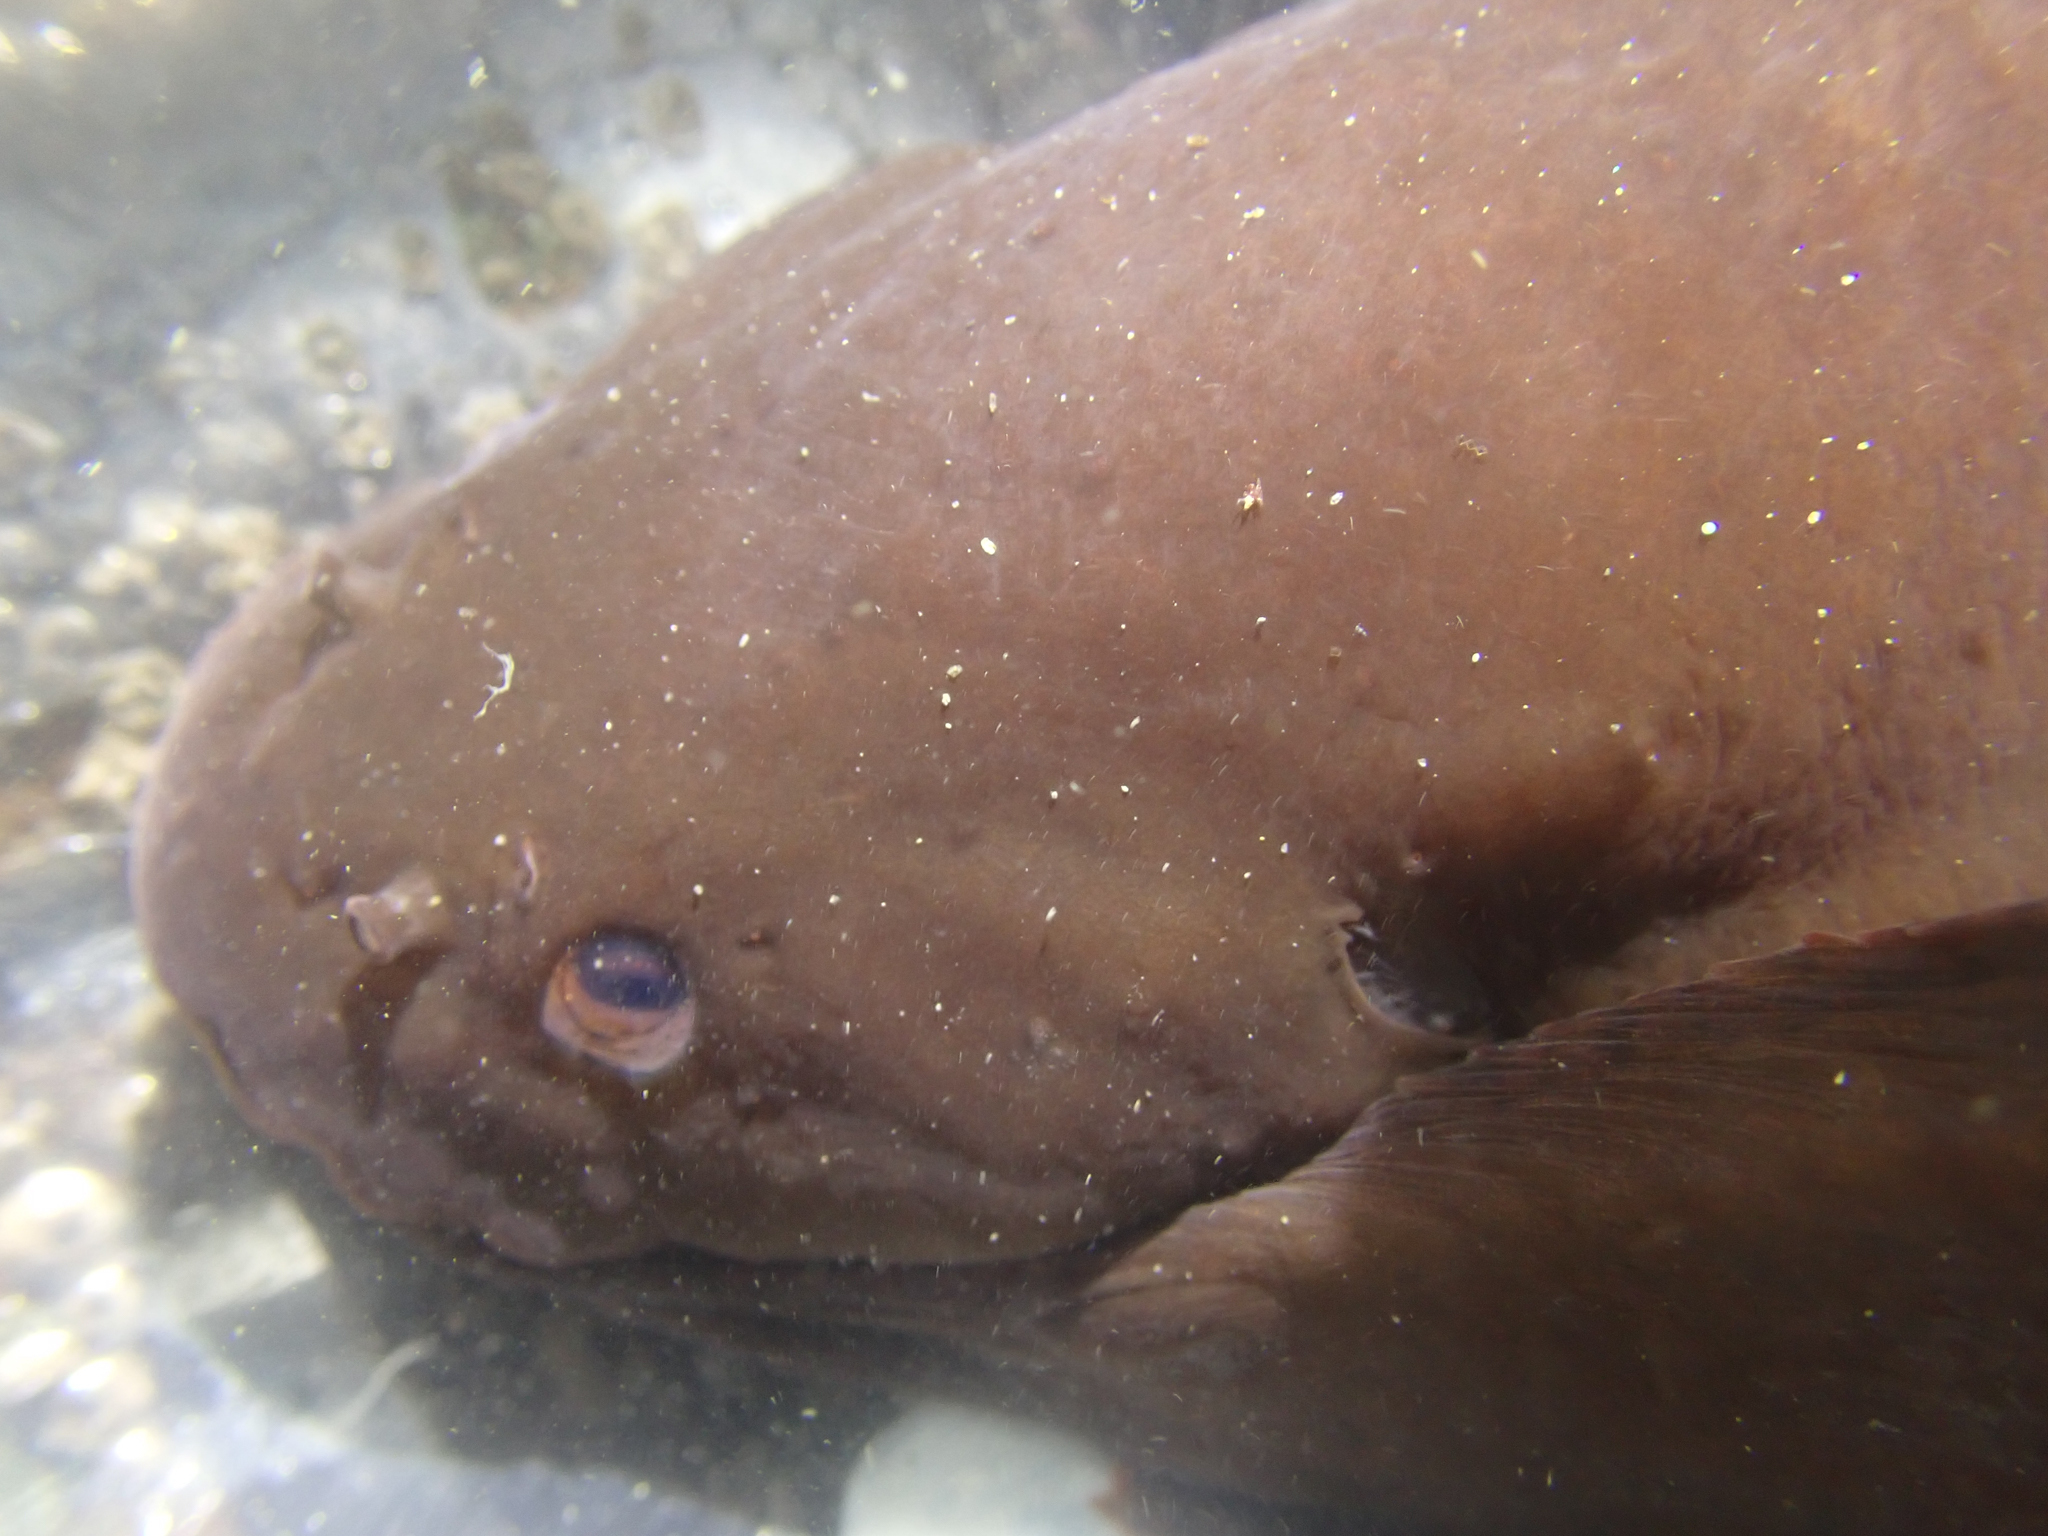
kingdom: Animalia
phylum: Chordata
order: Scorpaeniformes
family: Liparidae
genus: Liparis
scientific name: Liparis florae
